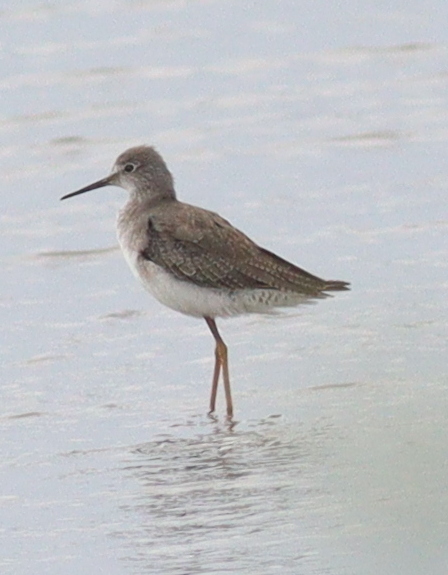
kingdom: Animalia
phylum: Chordata
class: Aves
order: Charadriiformes
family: Scolopacidae
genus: Tringa
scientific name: Tringa flavipes
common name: Lesser yellowlegs
